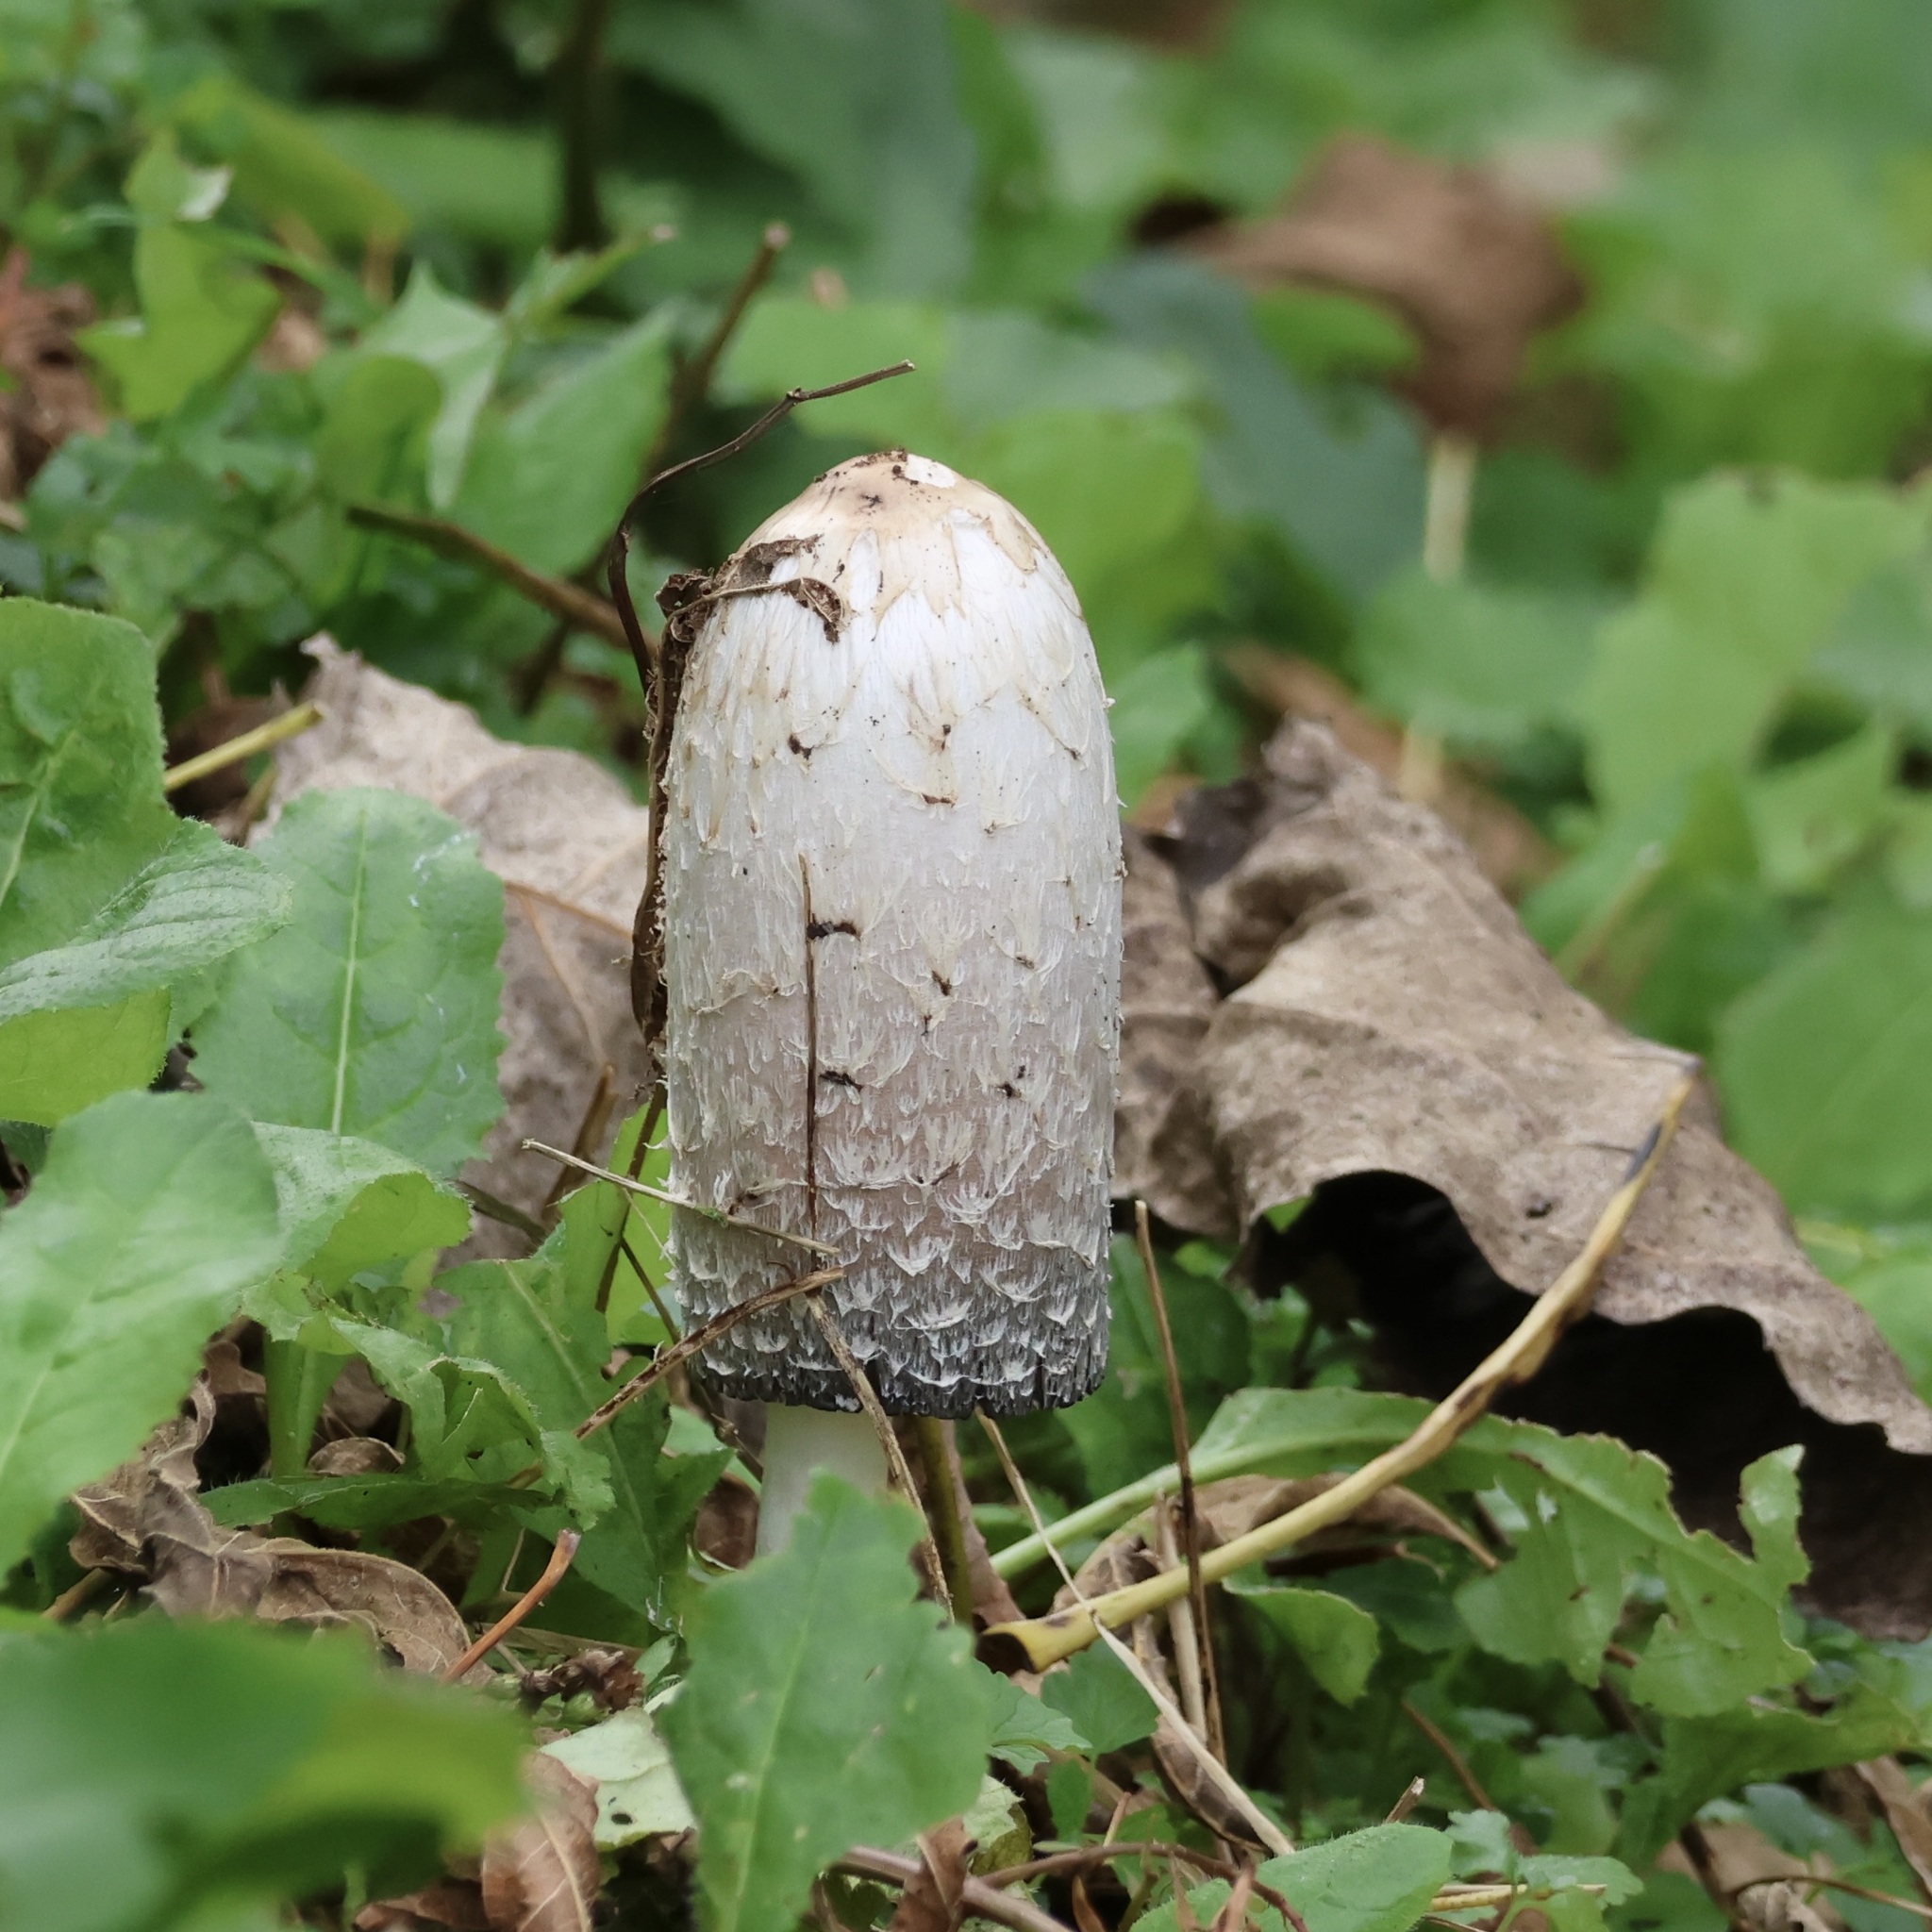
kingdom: Fungi
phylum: Basidiomycota
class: Agaricomycetes
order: Agaricales
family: Agaricaceae
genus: Coprinus
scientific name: Coprinus comatus
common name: Lawyer's wig
